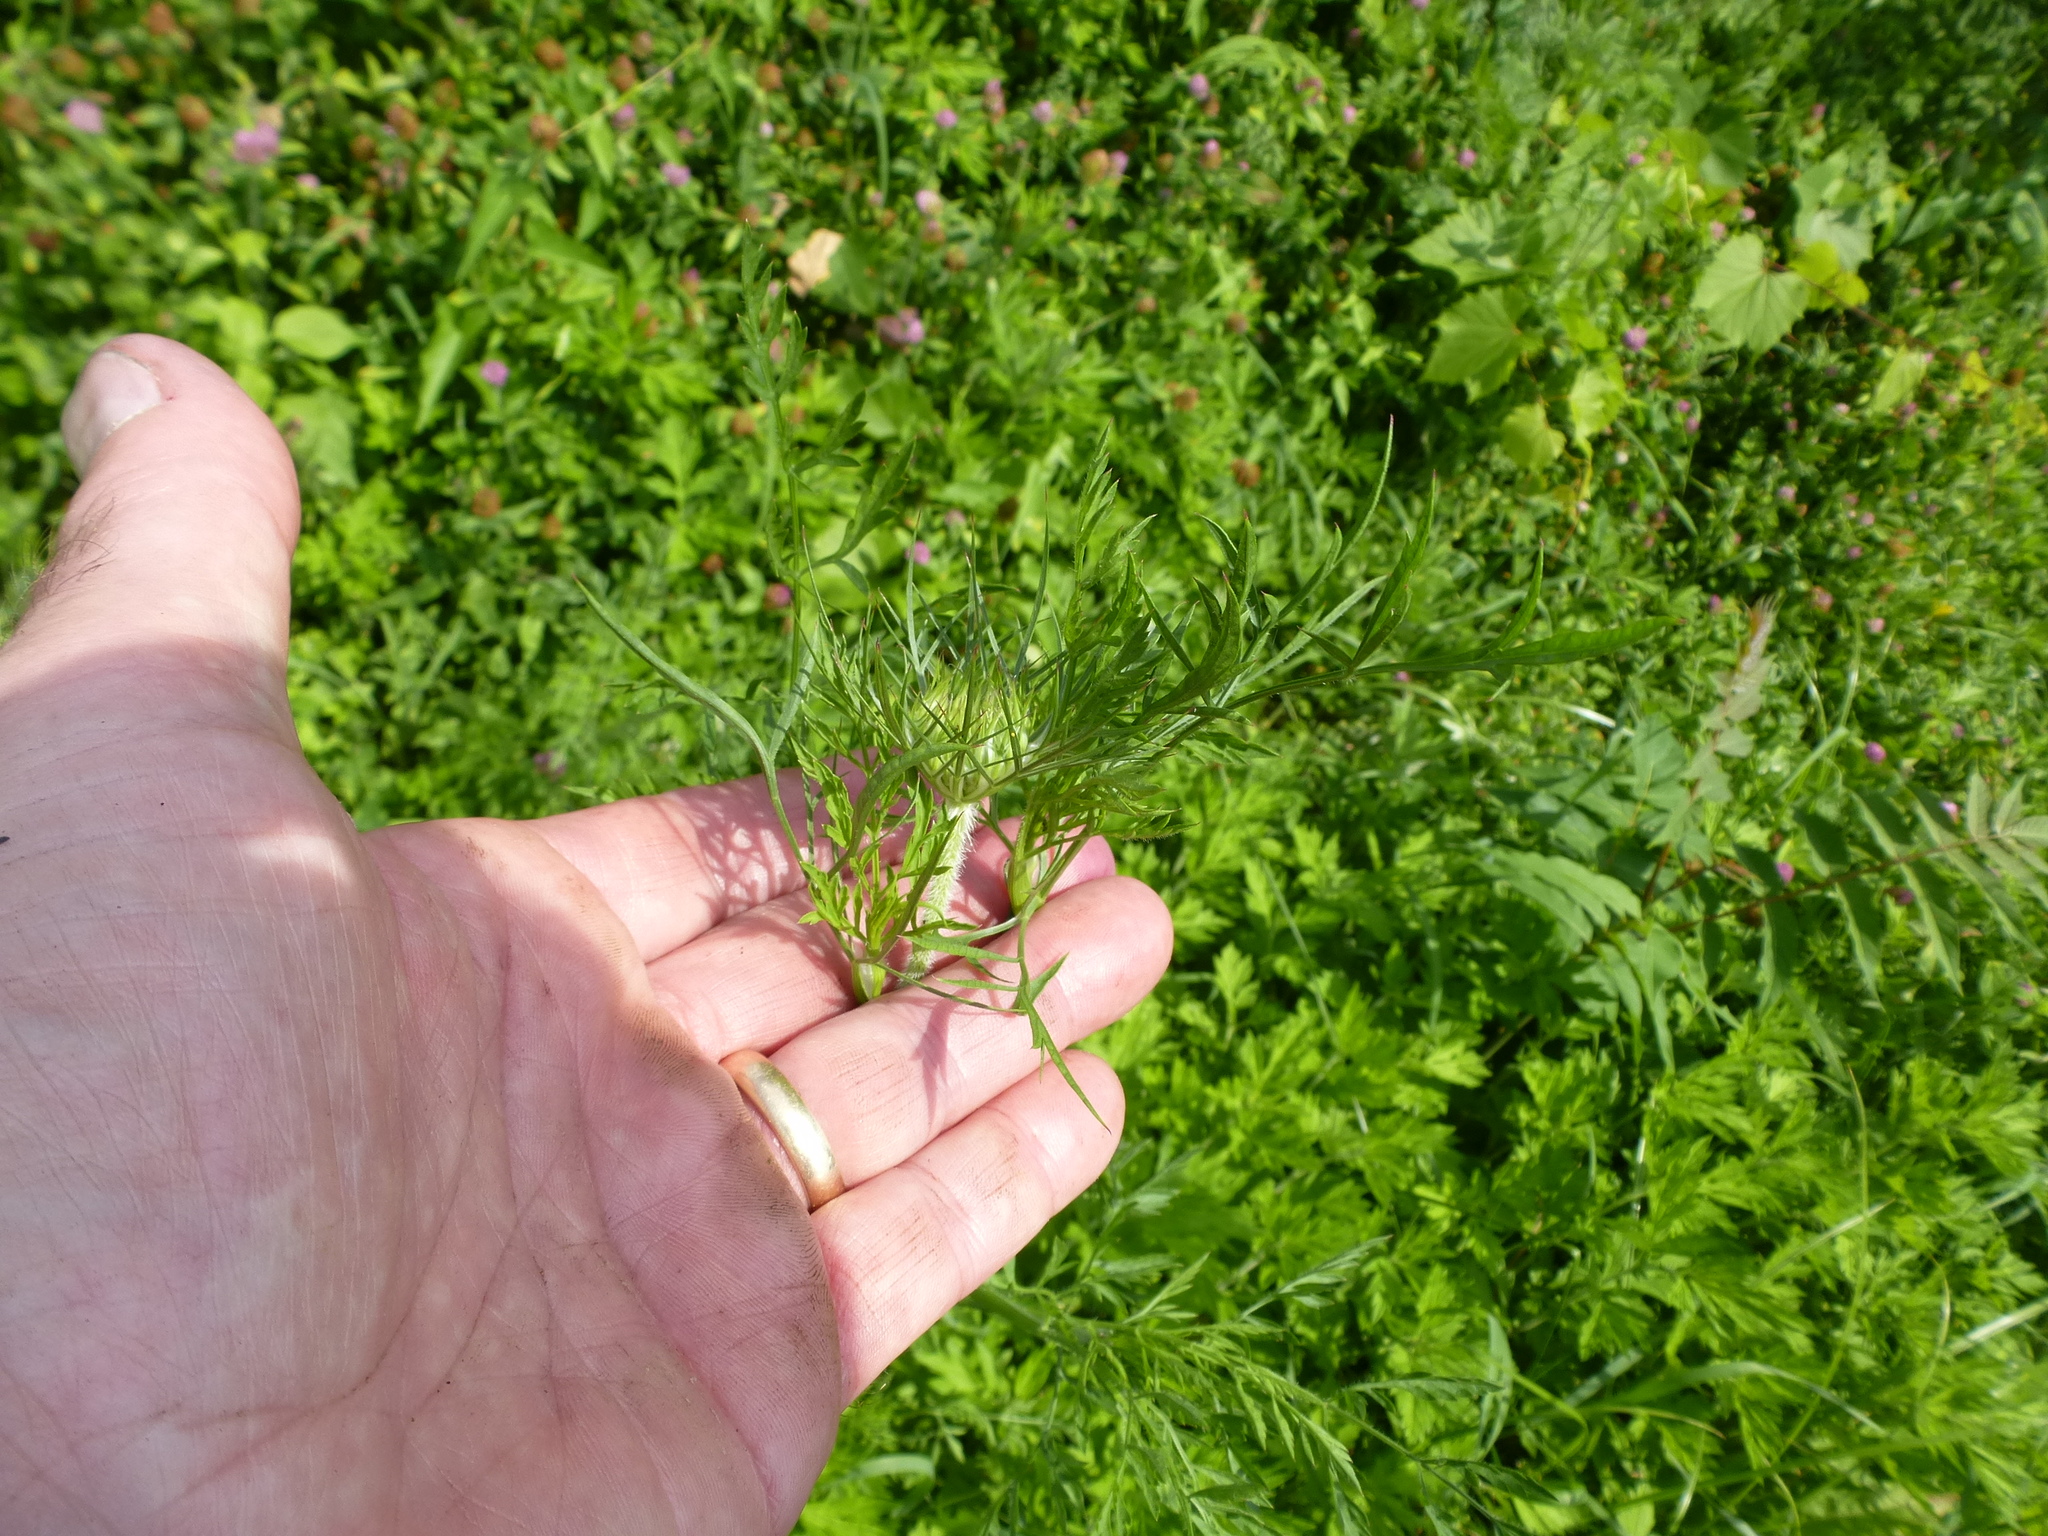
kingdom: Plantae
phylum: Tracheophyta
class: Magnoliopsida
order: Apiales
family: Apiaceae
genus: Daucus
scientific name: Daucus carota
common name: Wild carrot
